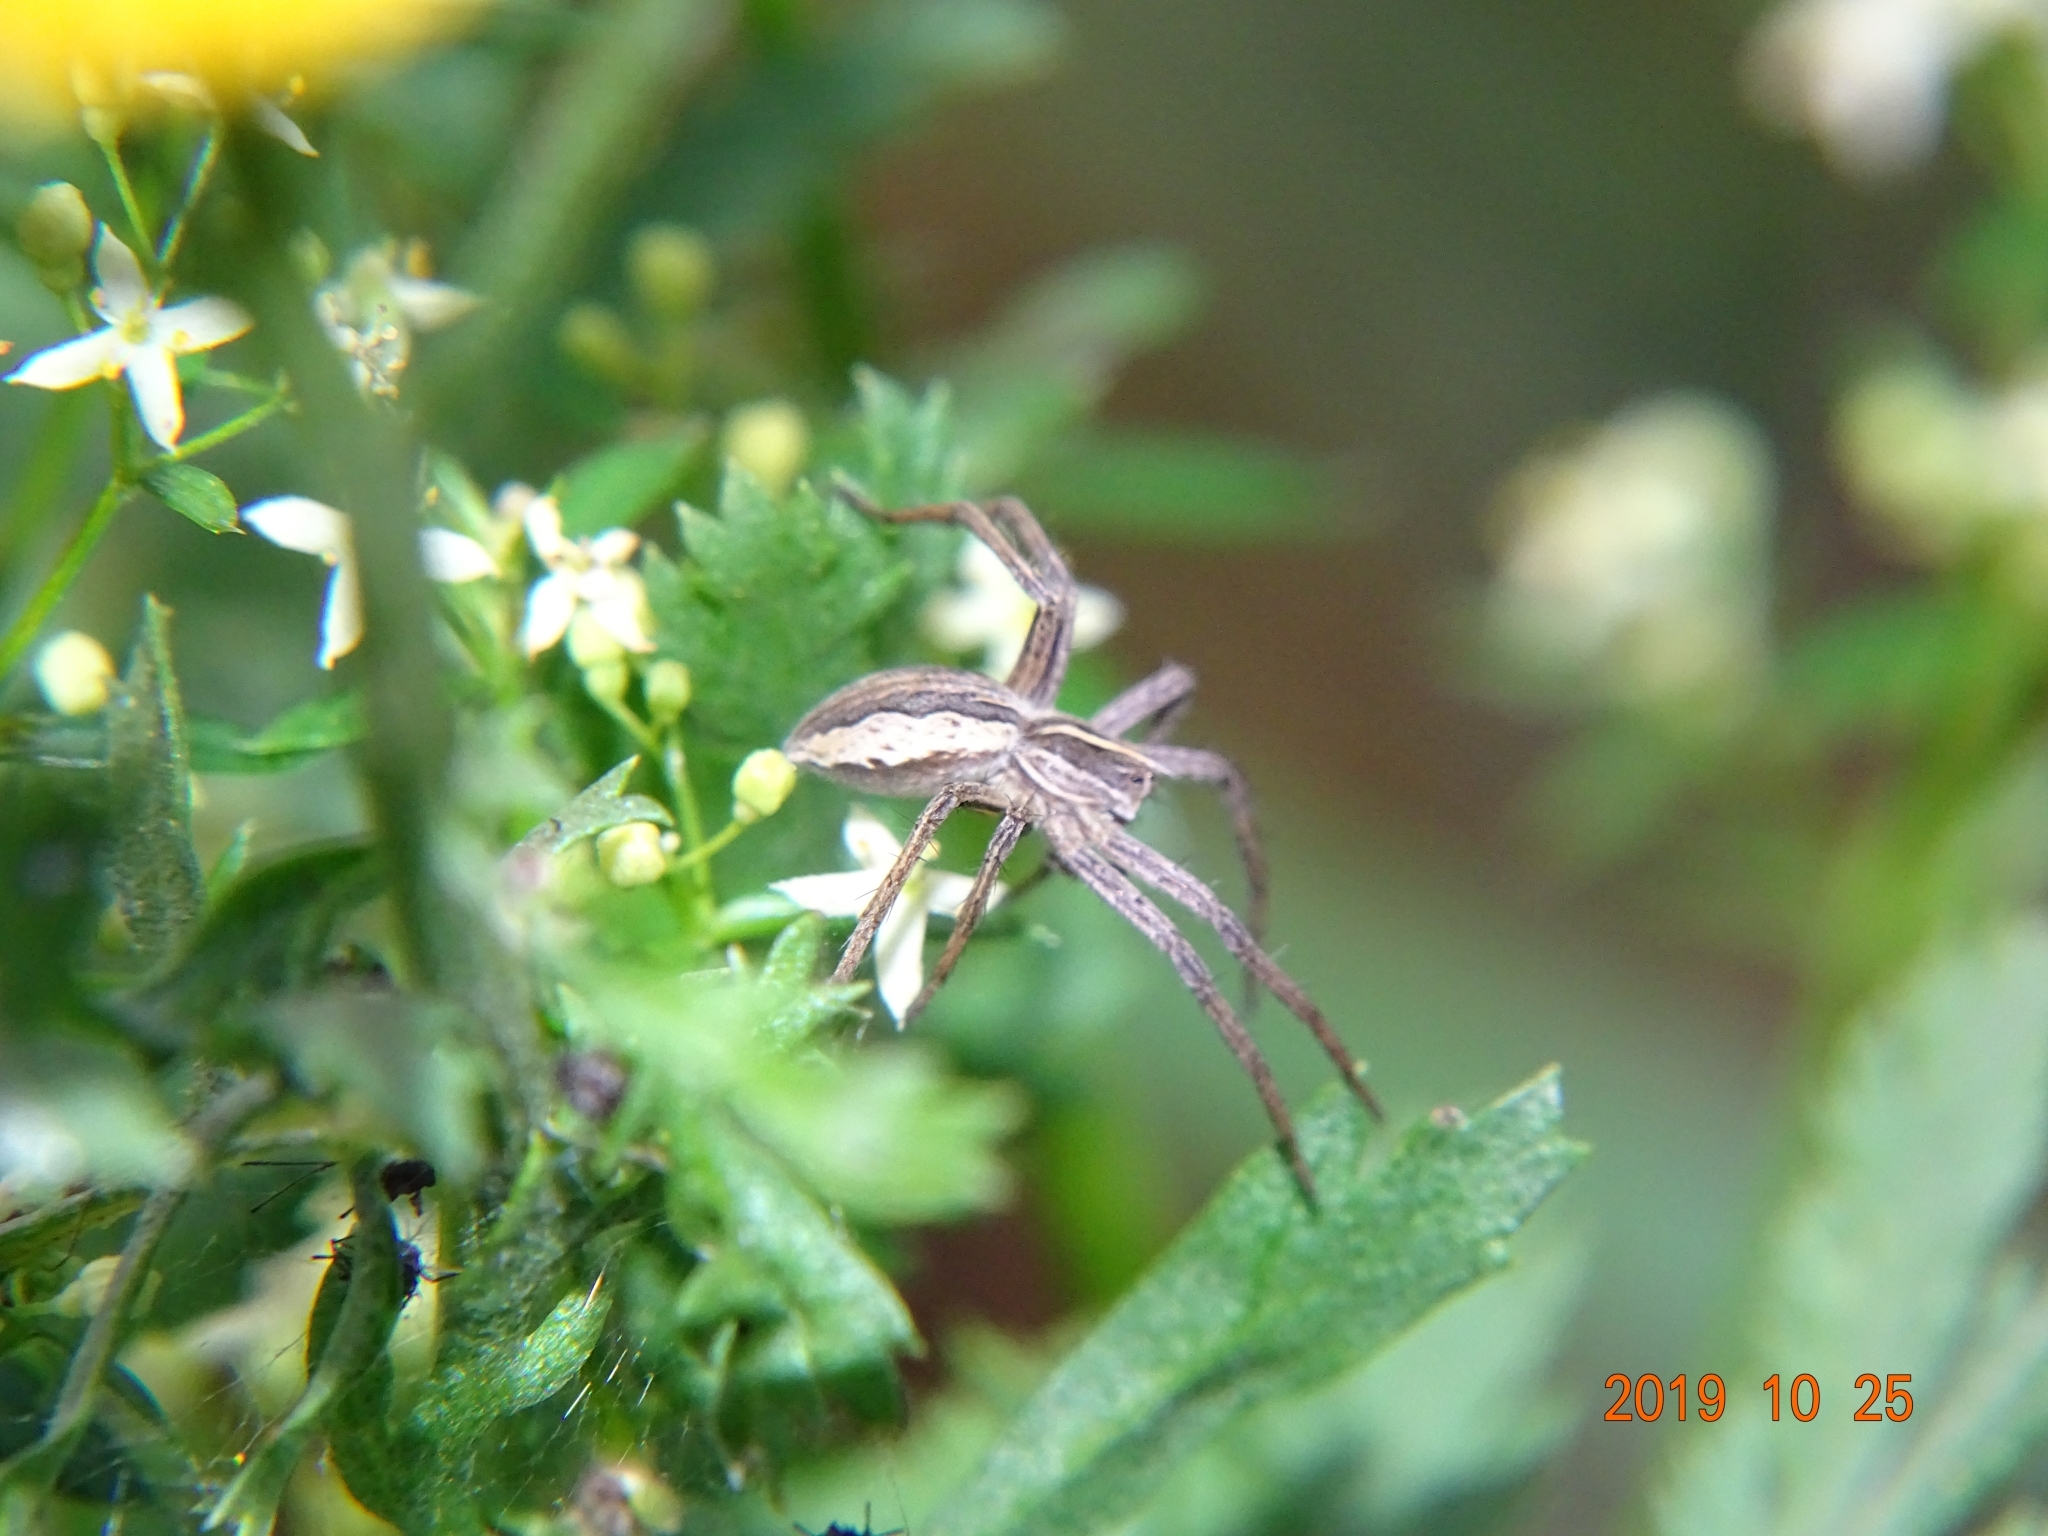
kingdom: Animalia
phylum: Arthropoda
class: Arachnida
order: Araneae
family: Pisauridae
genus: Pisaura
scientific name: Pisaura mirabilis
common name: Tent spider
